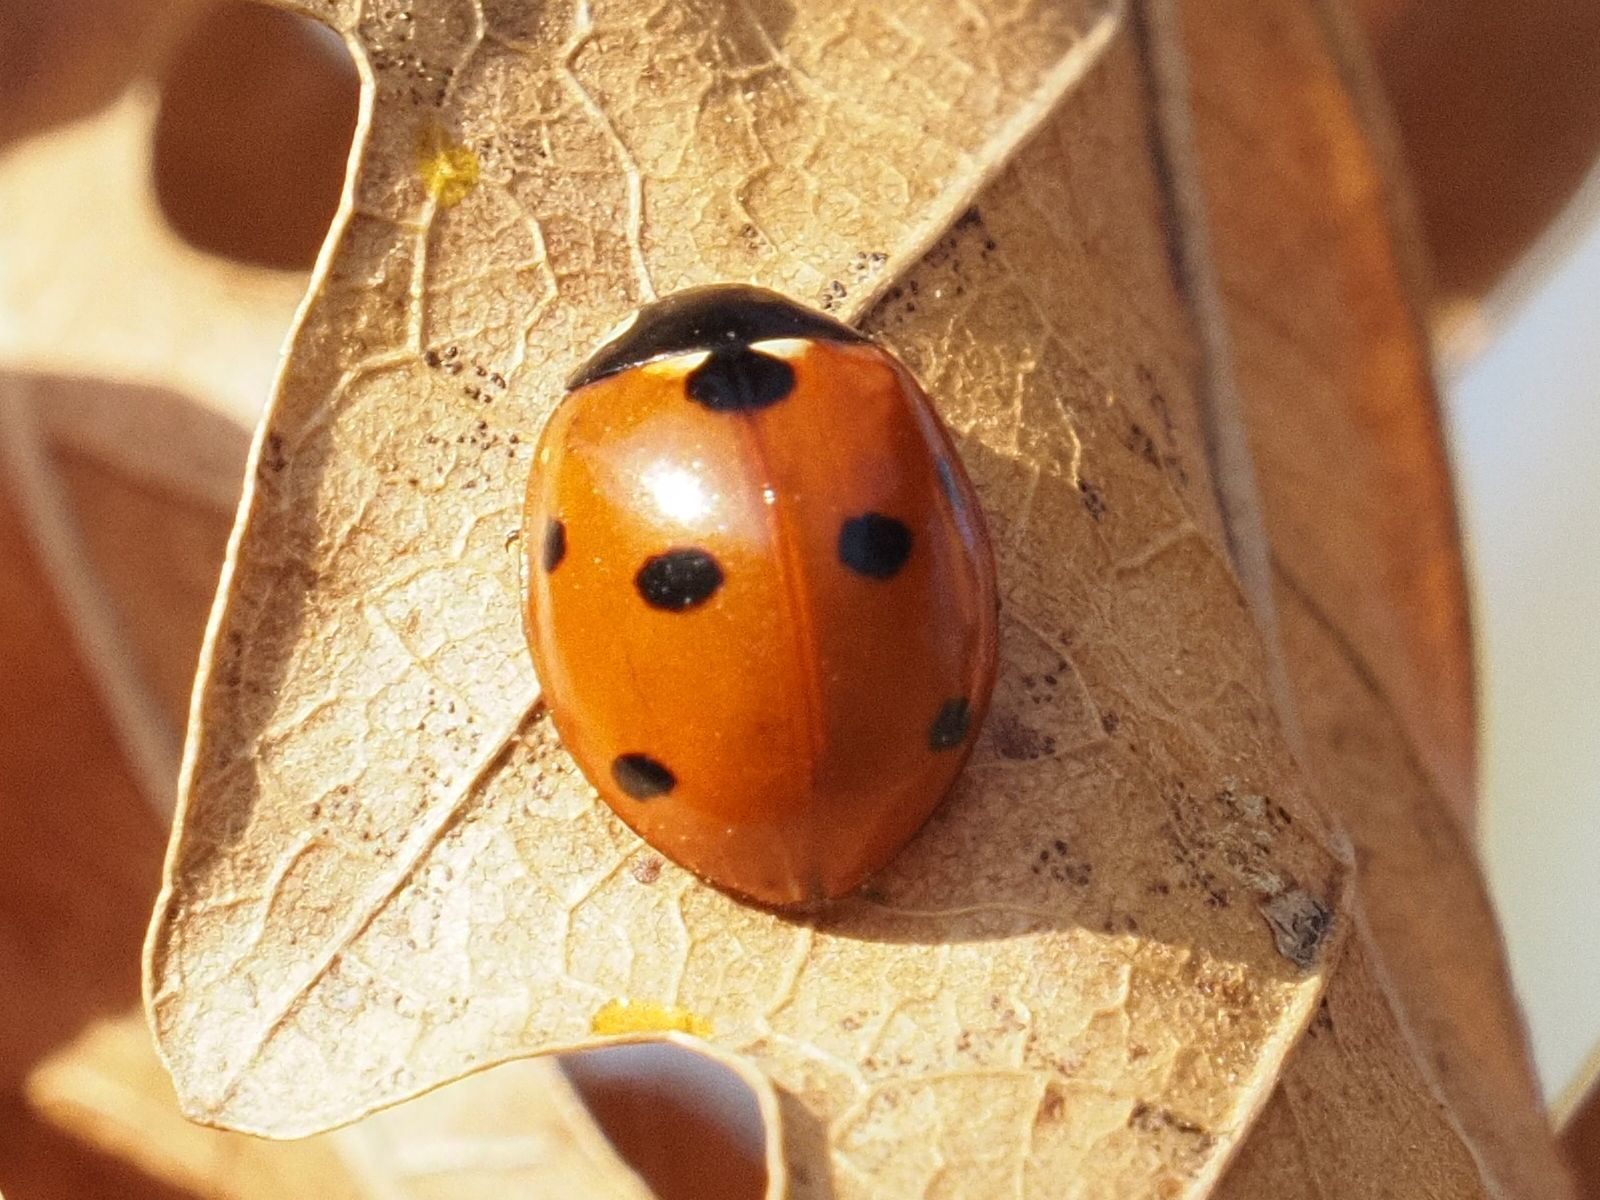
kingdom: Animalia
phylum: Arthropoda
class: Insecta
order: Coleoptera
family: Coccinellidae
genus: Coccinella
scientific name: Coccinella septempunctata
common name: Sevenspotted lady beetle
